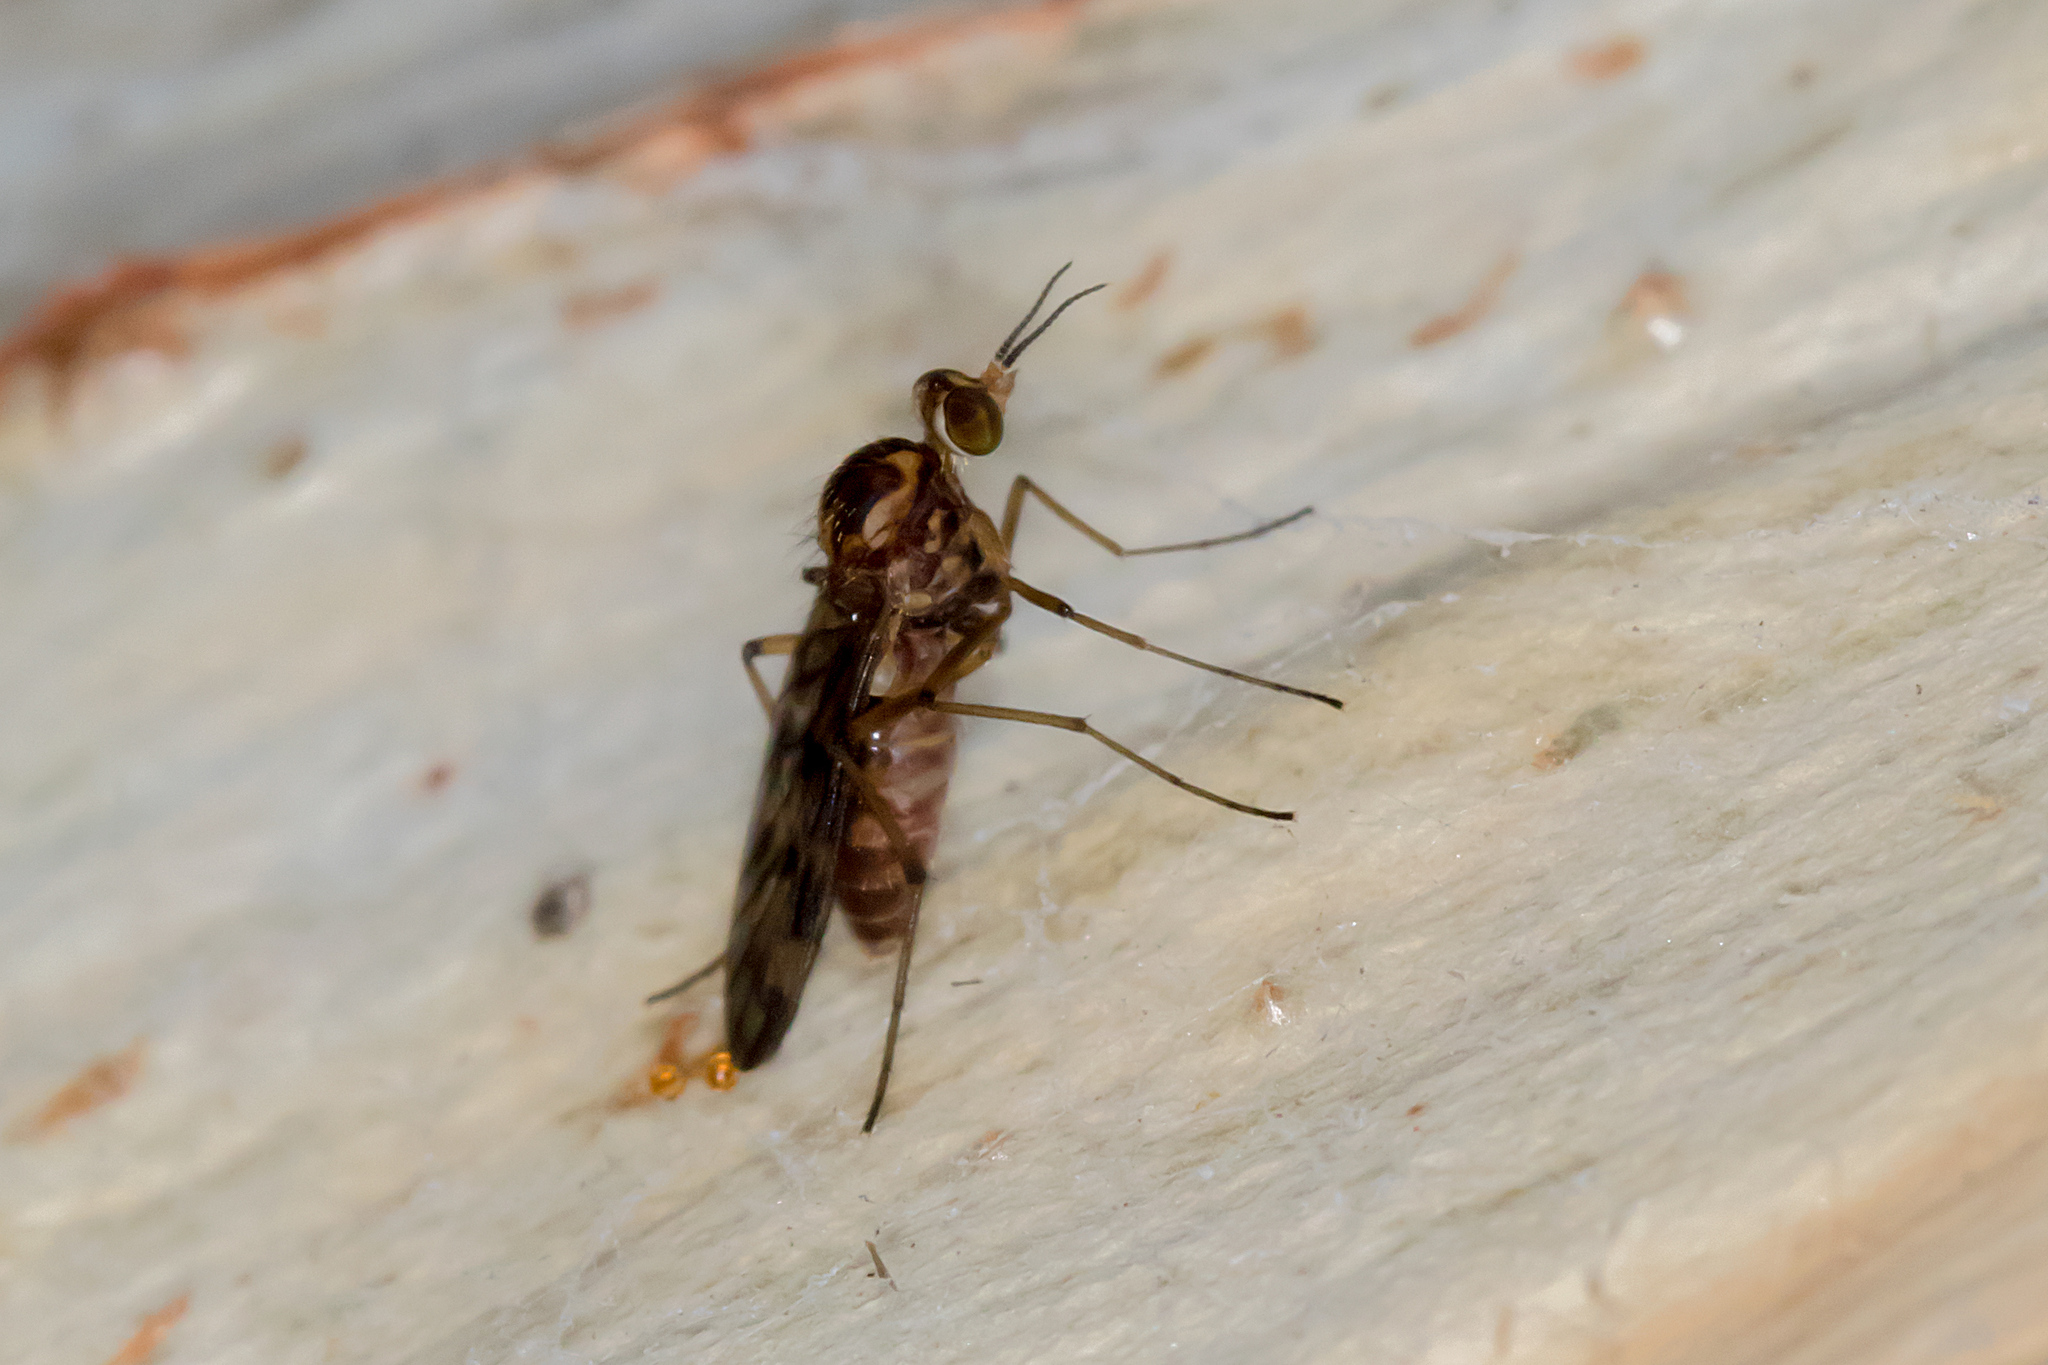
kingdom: Animalia
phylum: Arthropoda
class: Insecta
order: Diptera
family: Anisopodidae
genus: Sylvicola
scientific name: Sylvicola dubius
